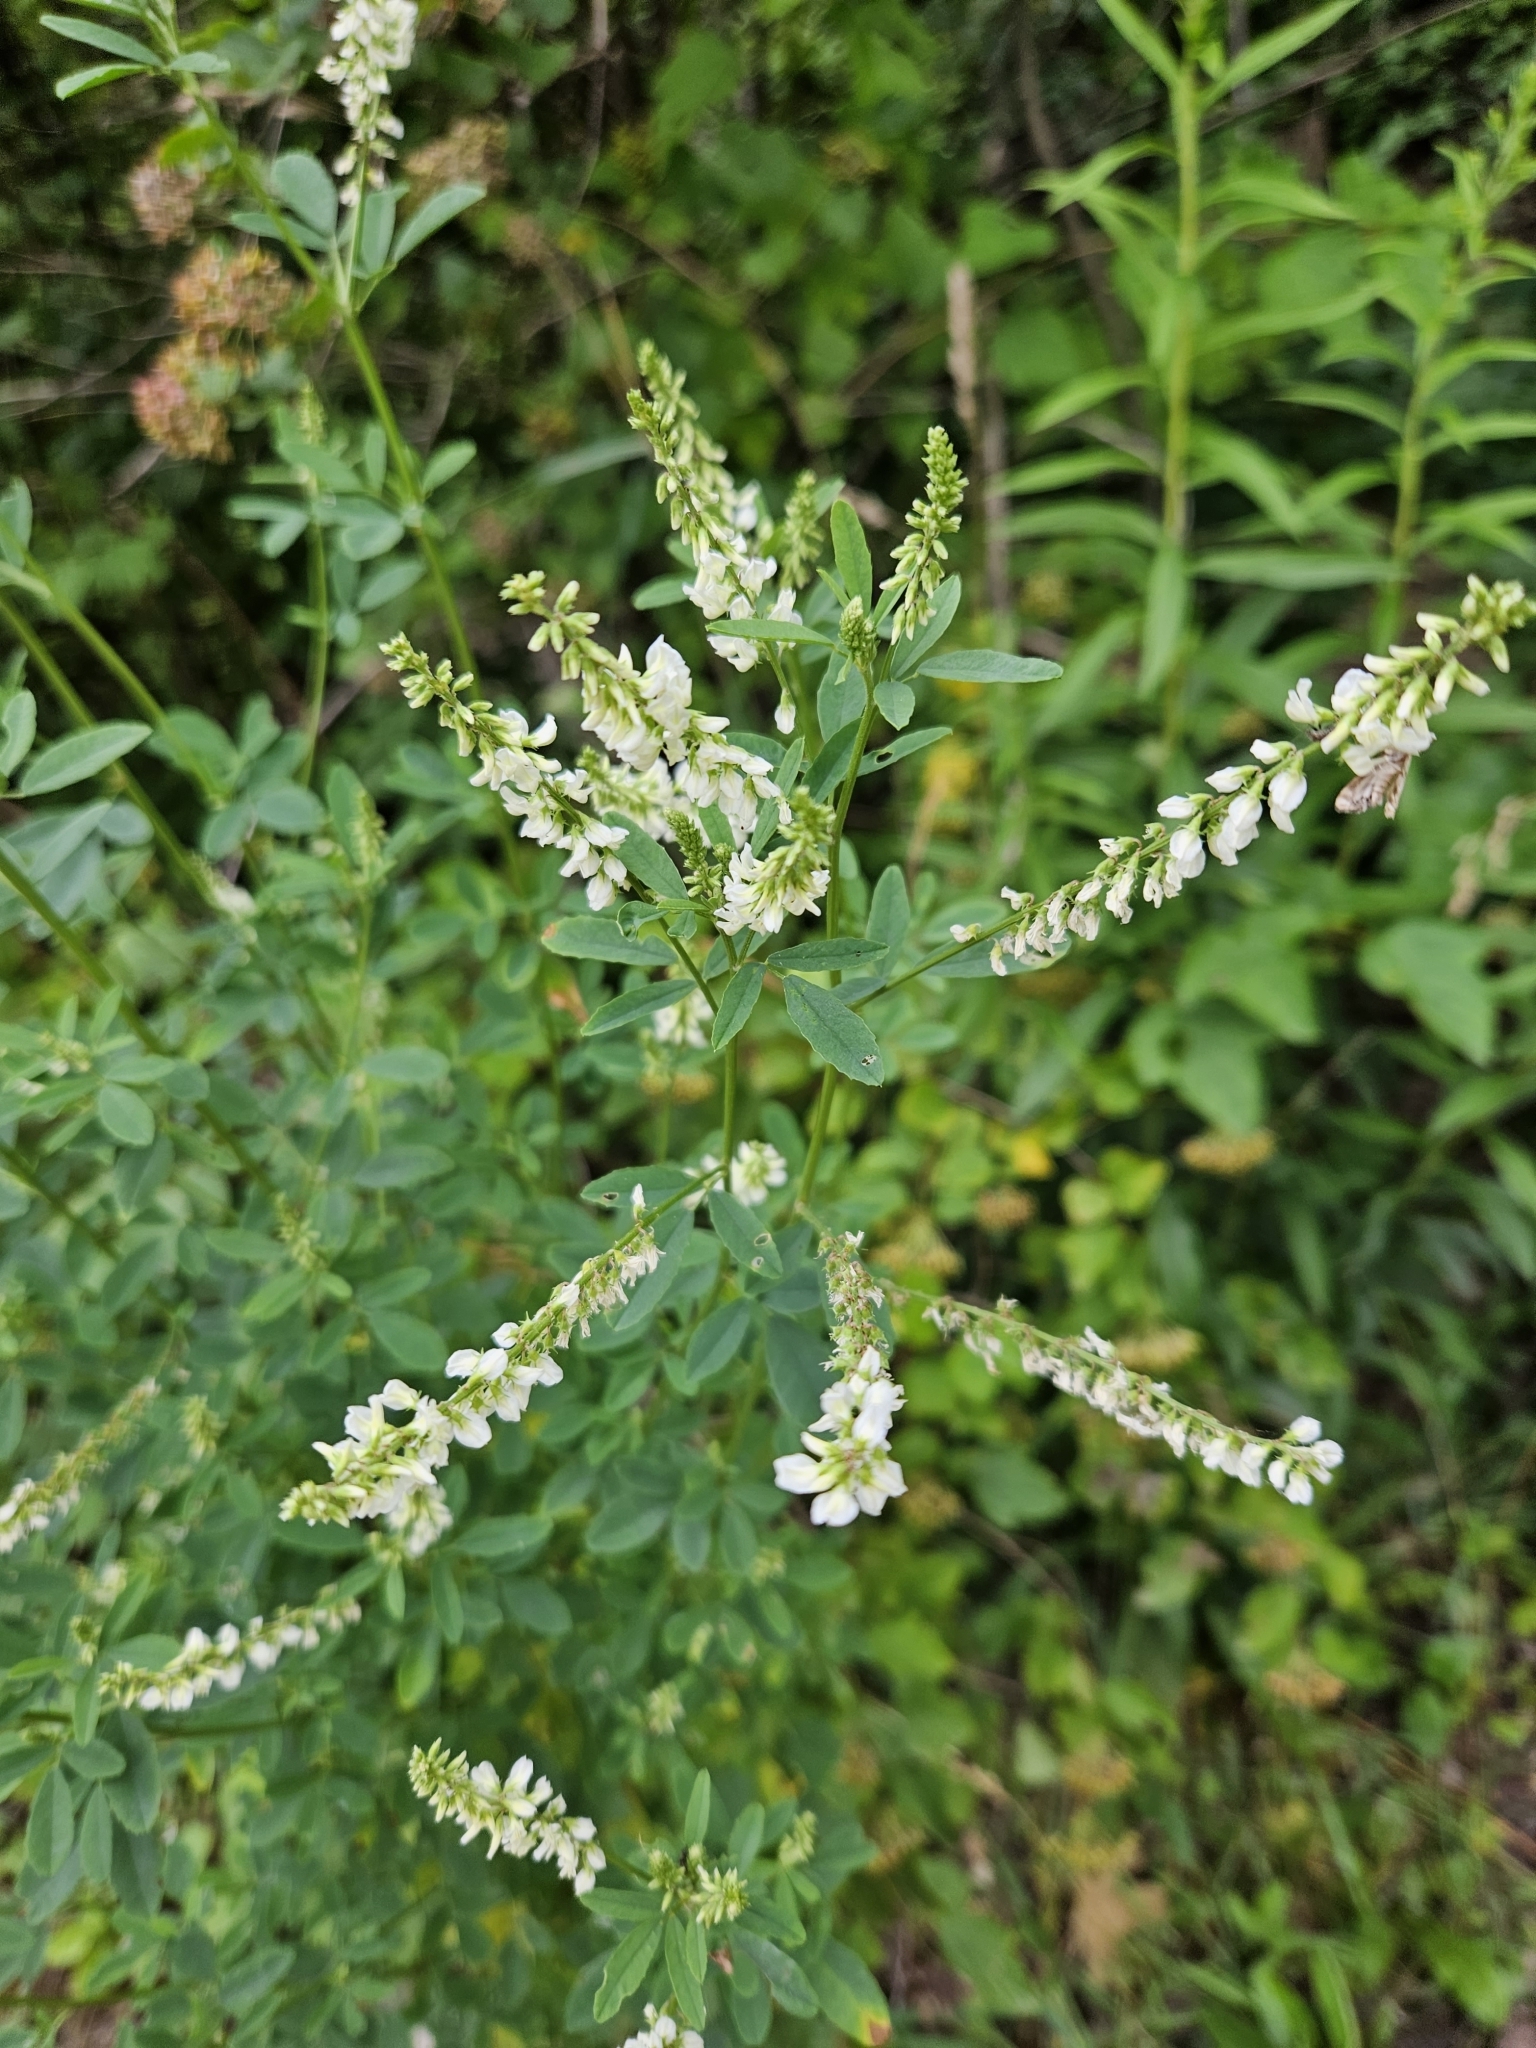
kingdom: Plantae
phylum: Tracheophyta
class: Magnoliopsida
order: Fabales
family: Fabaceae
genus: Melilotus
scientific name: Melilotus albus
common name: White melilot
